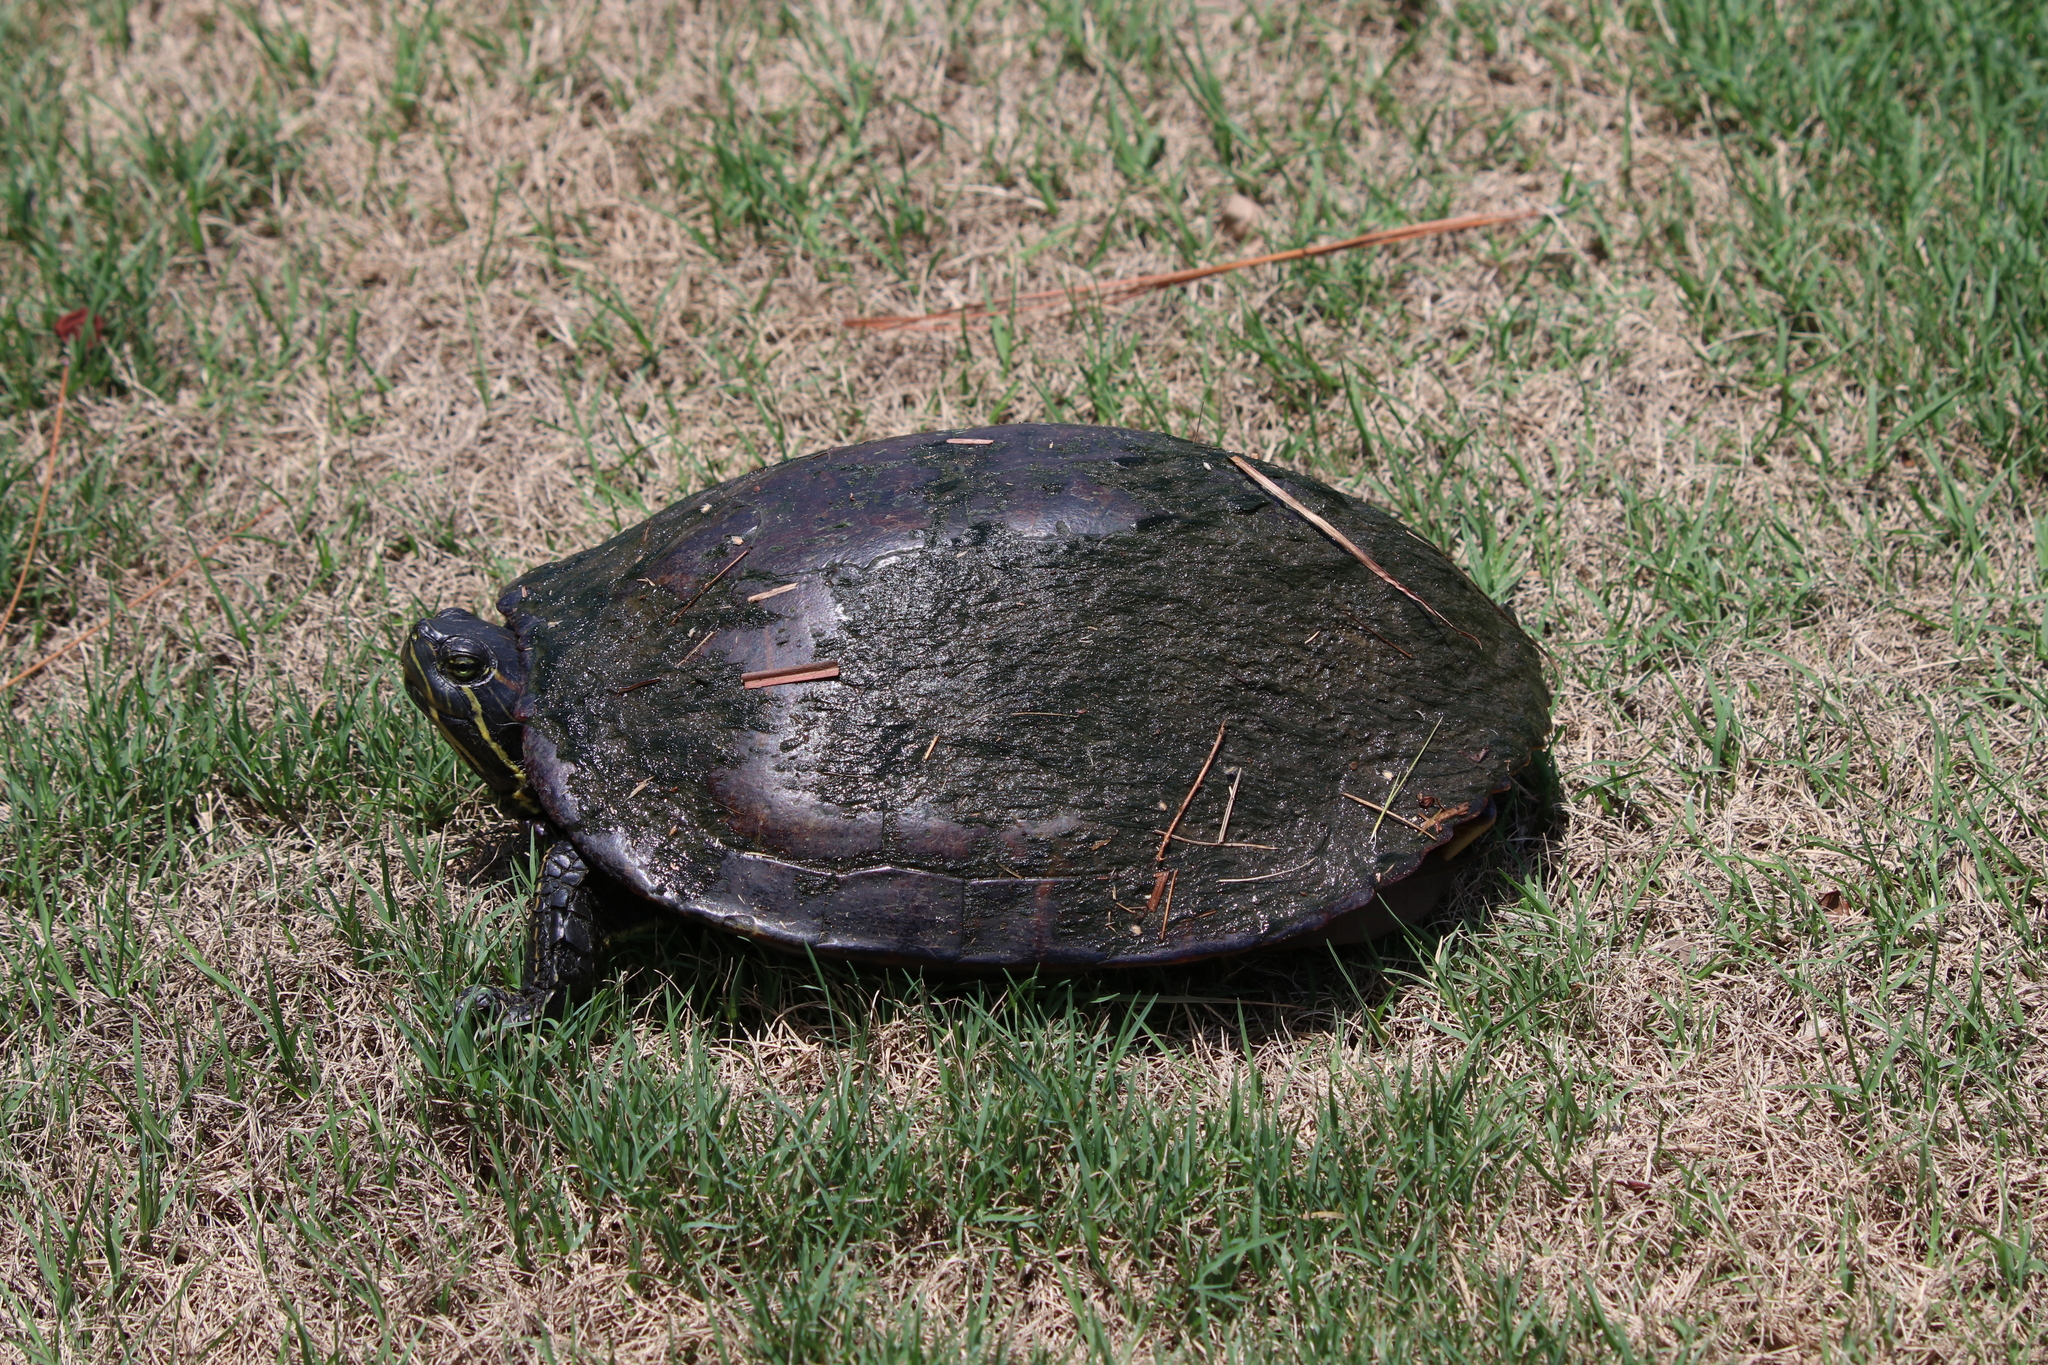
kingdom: Animalia
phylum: Chordata
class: Testudines
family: Emydidae
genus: Trachemys
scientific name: Trachemys scripta
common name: Slider
